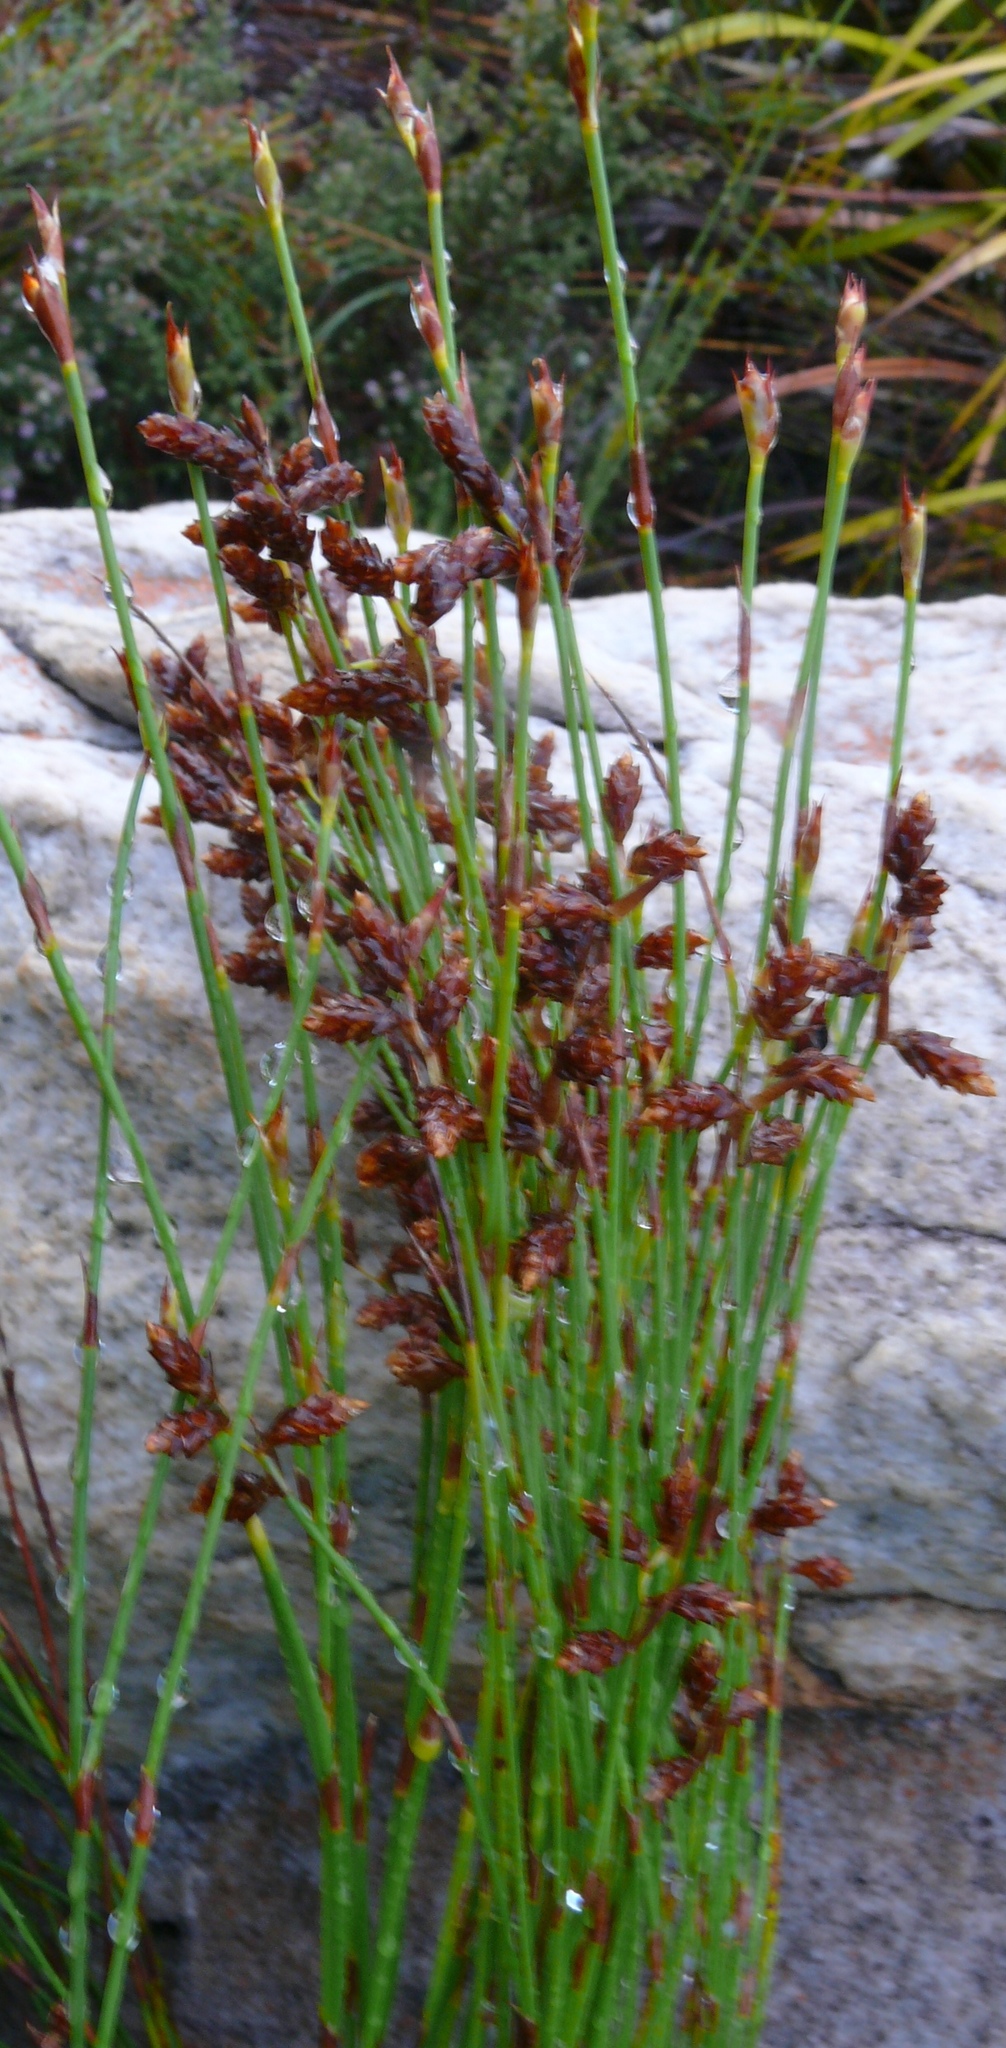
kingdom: Plantae
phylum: Tracheophyta
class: Liliopsida
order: Poales
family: Restionaceae
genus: Mastersiella
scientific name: Mastersiella digitata
